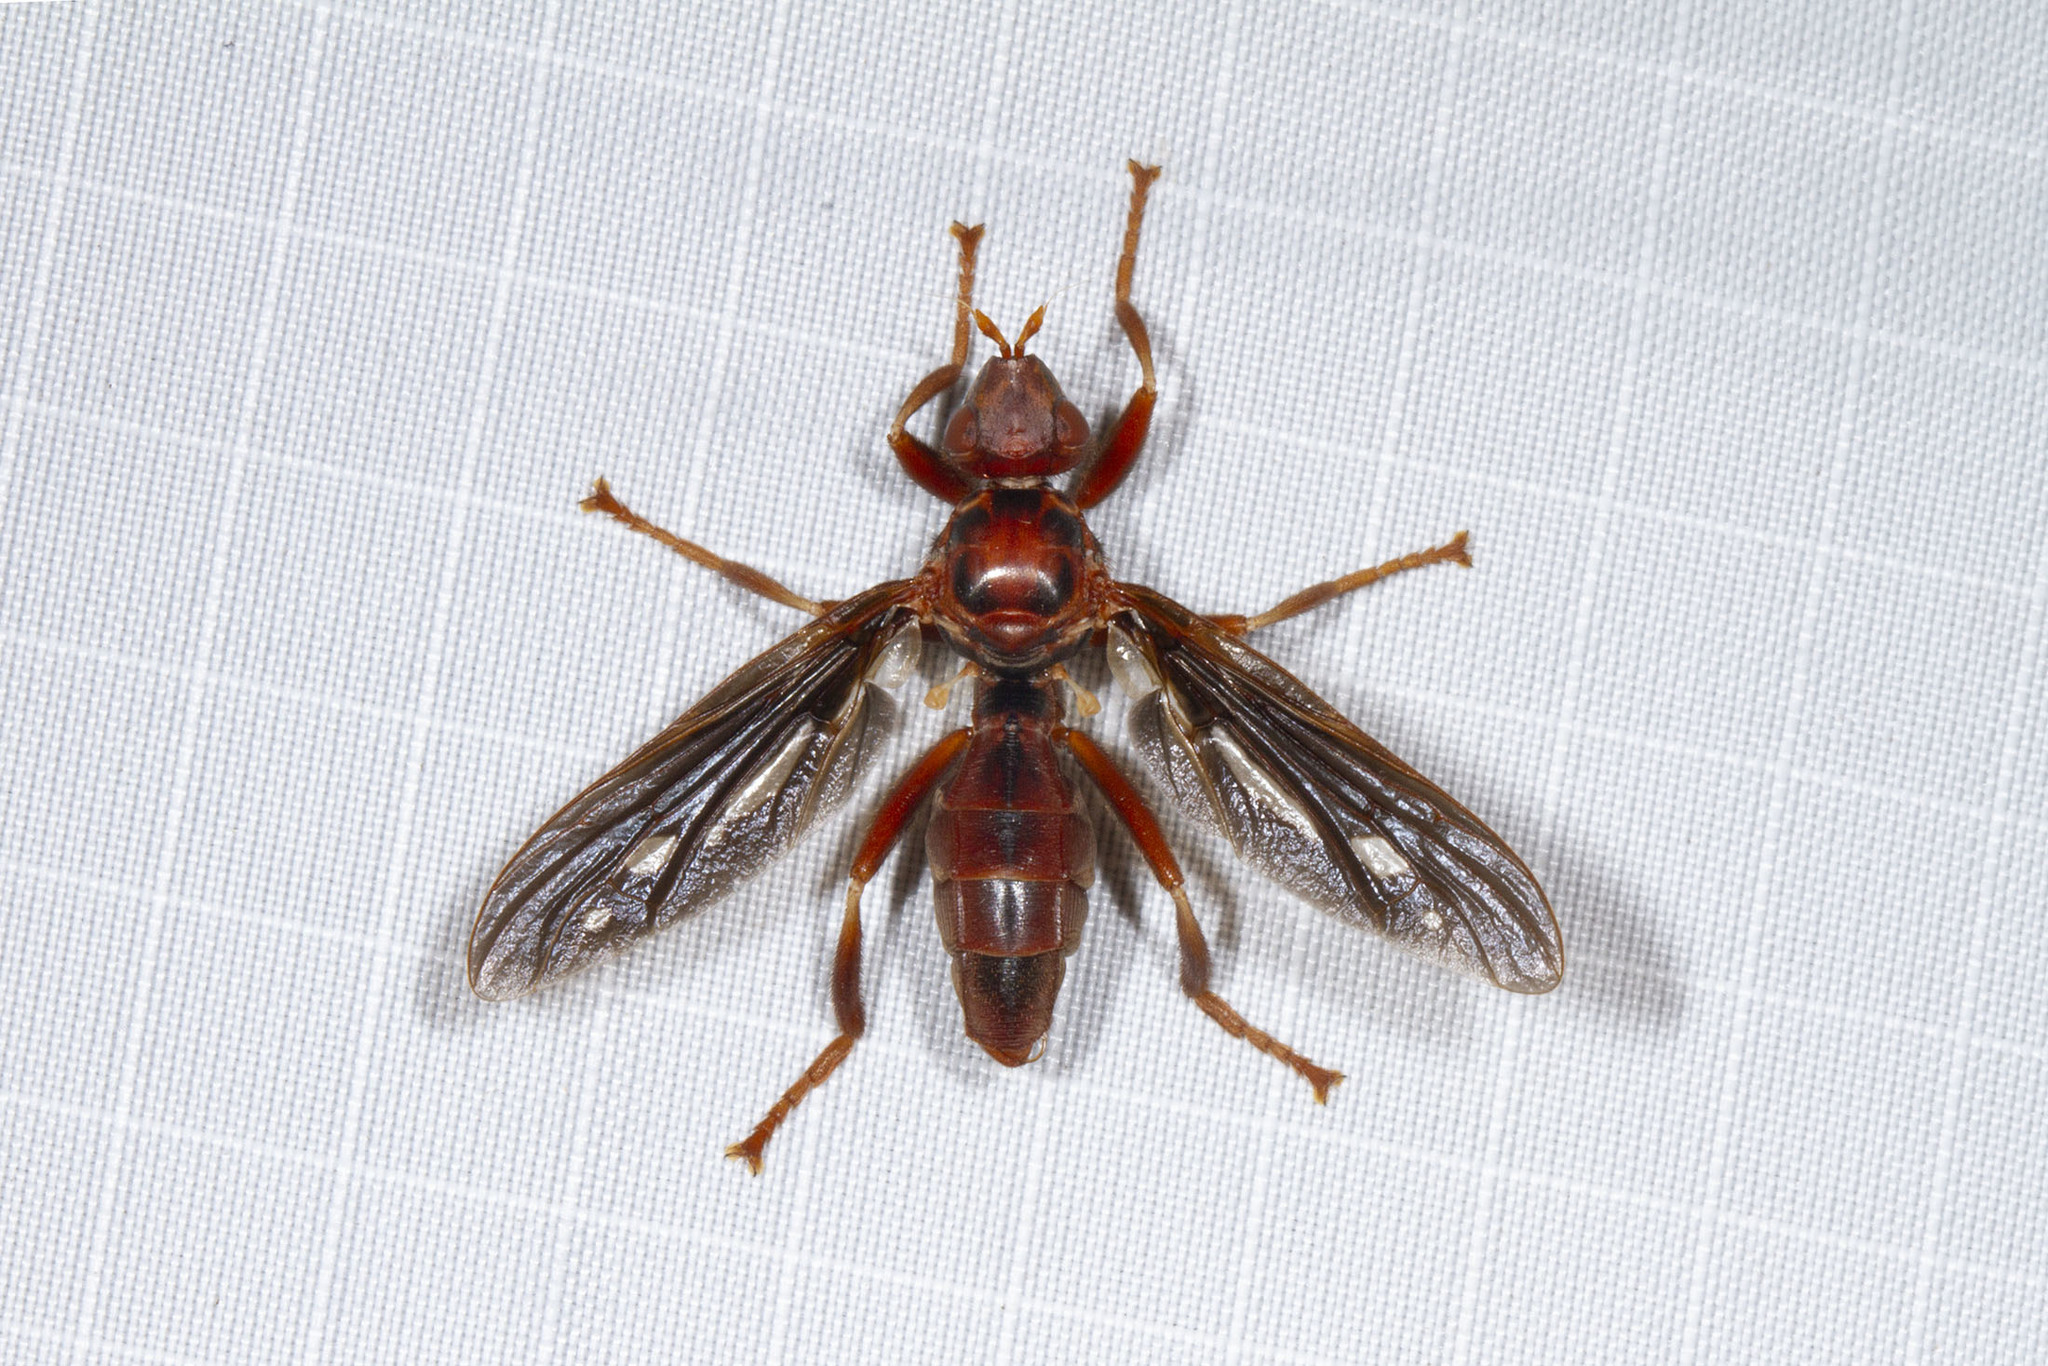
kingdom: Animalia
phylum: Arthropoda
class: Insecta
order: Diptera
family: Pyrgotidae
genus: Pyrgota
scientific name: Pyrgota fenestrata
